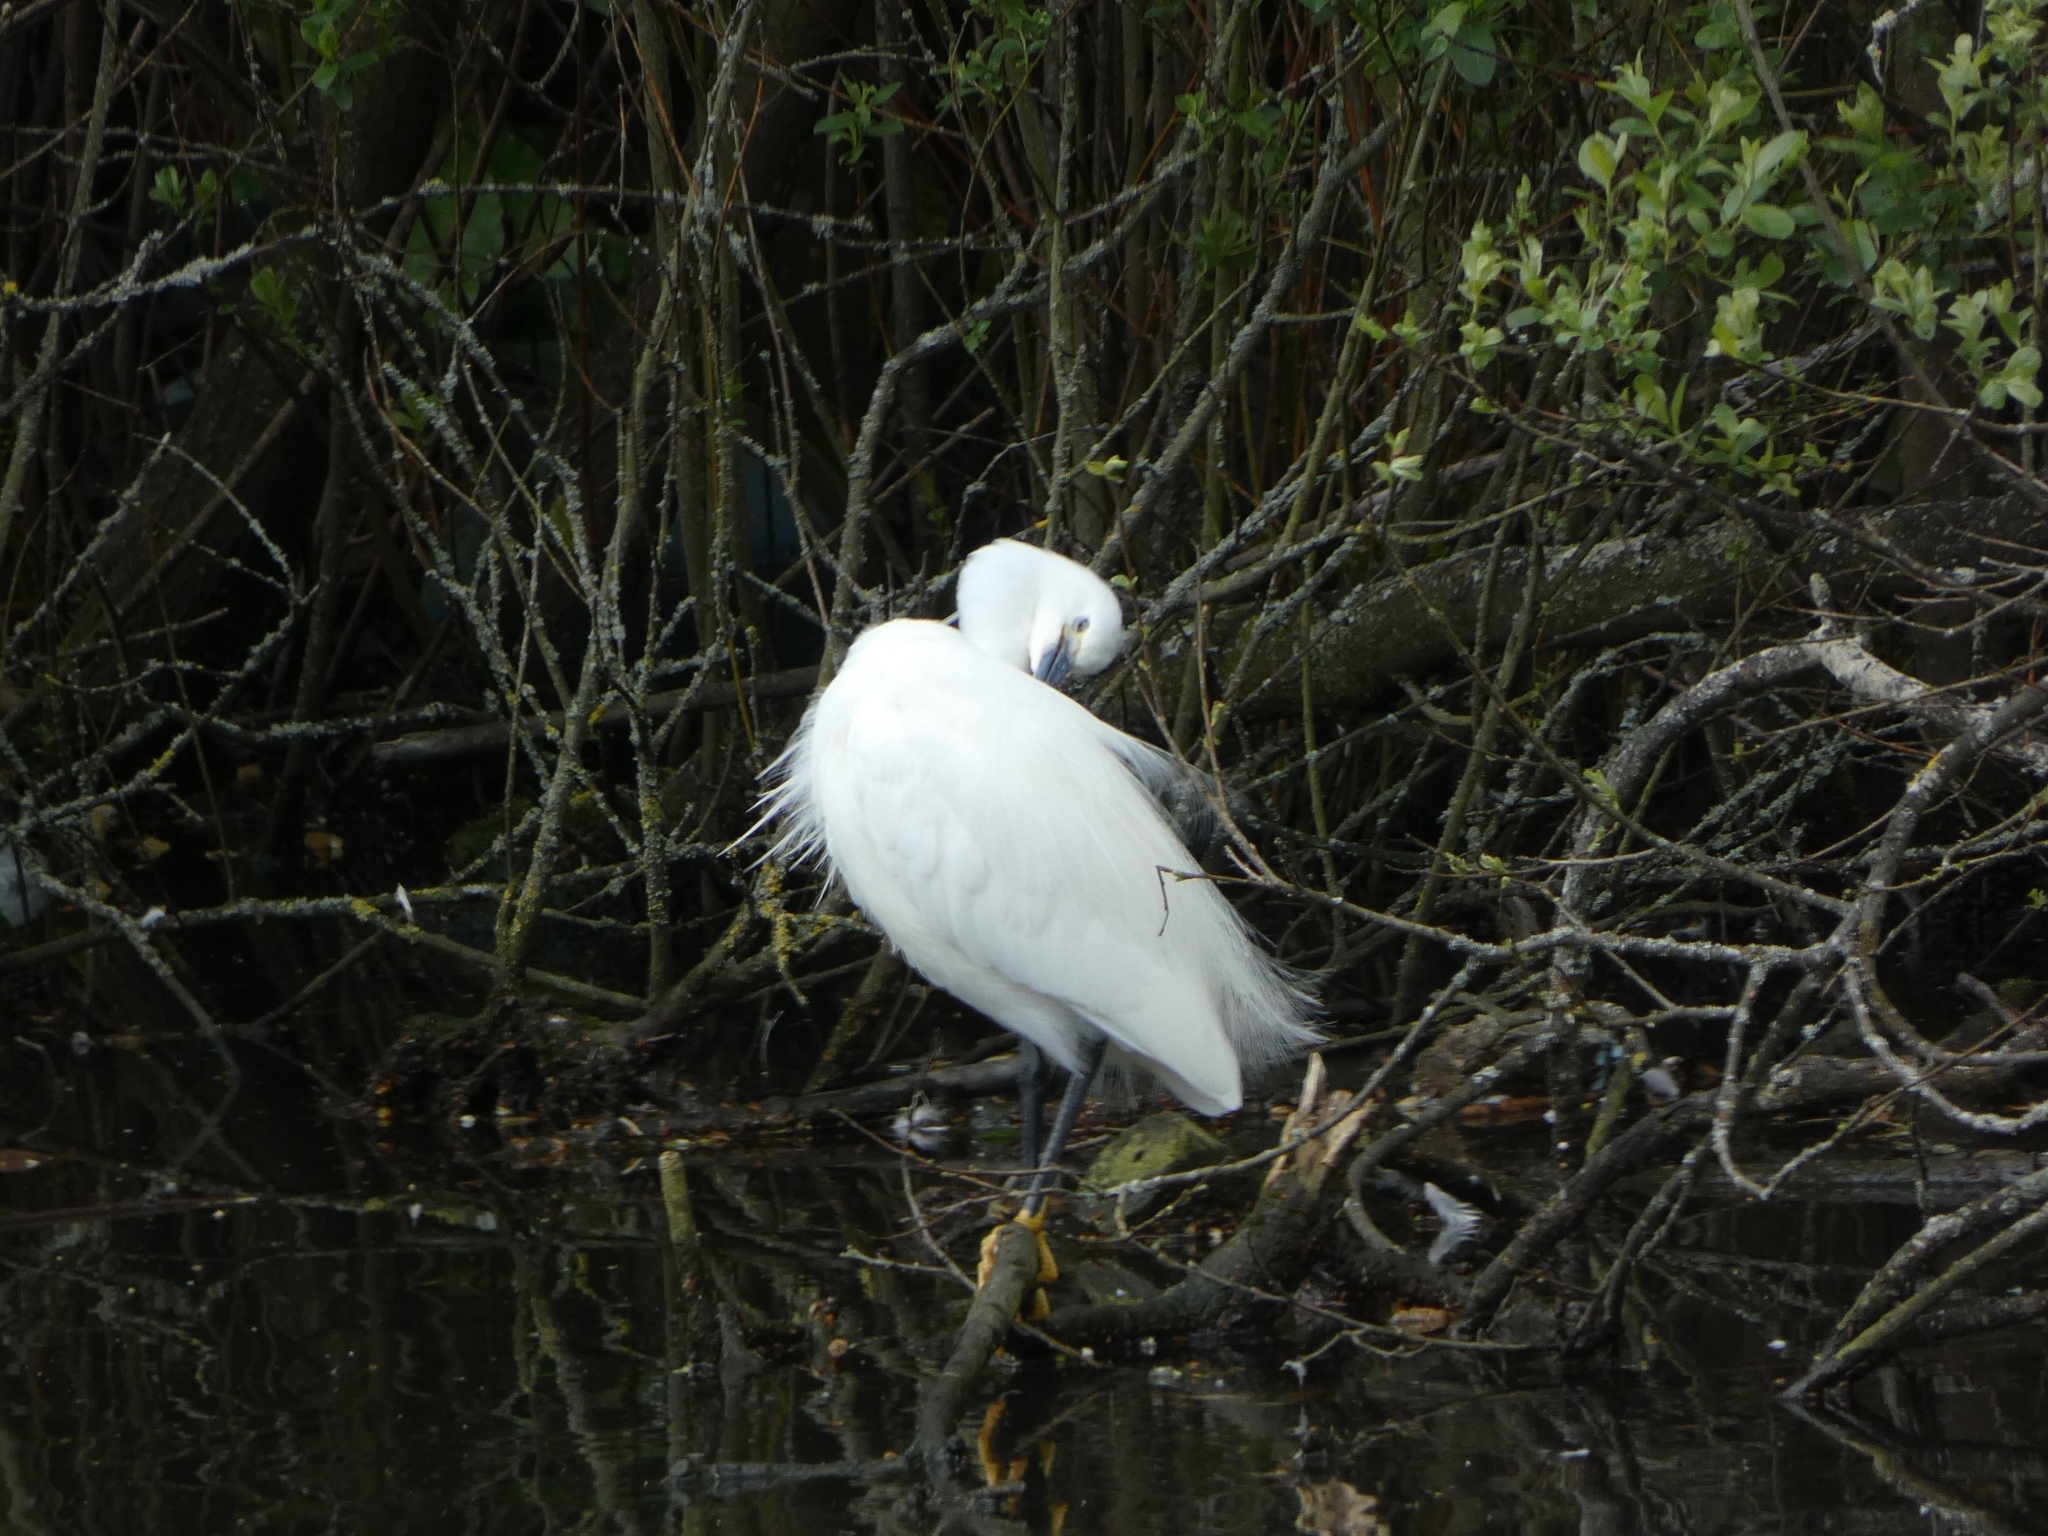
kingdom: Animalia
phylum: Chordata
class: Aves
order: Pelecaniformes
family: Ardeidae
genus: Egretta
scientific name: Egretta garzetta
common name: Little egret
